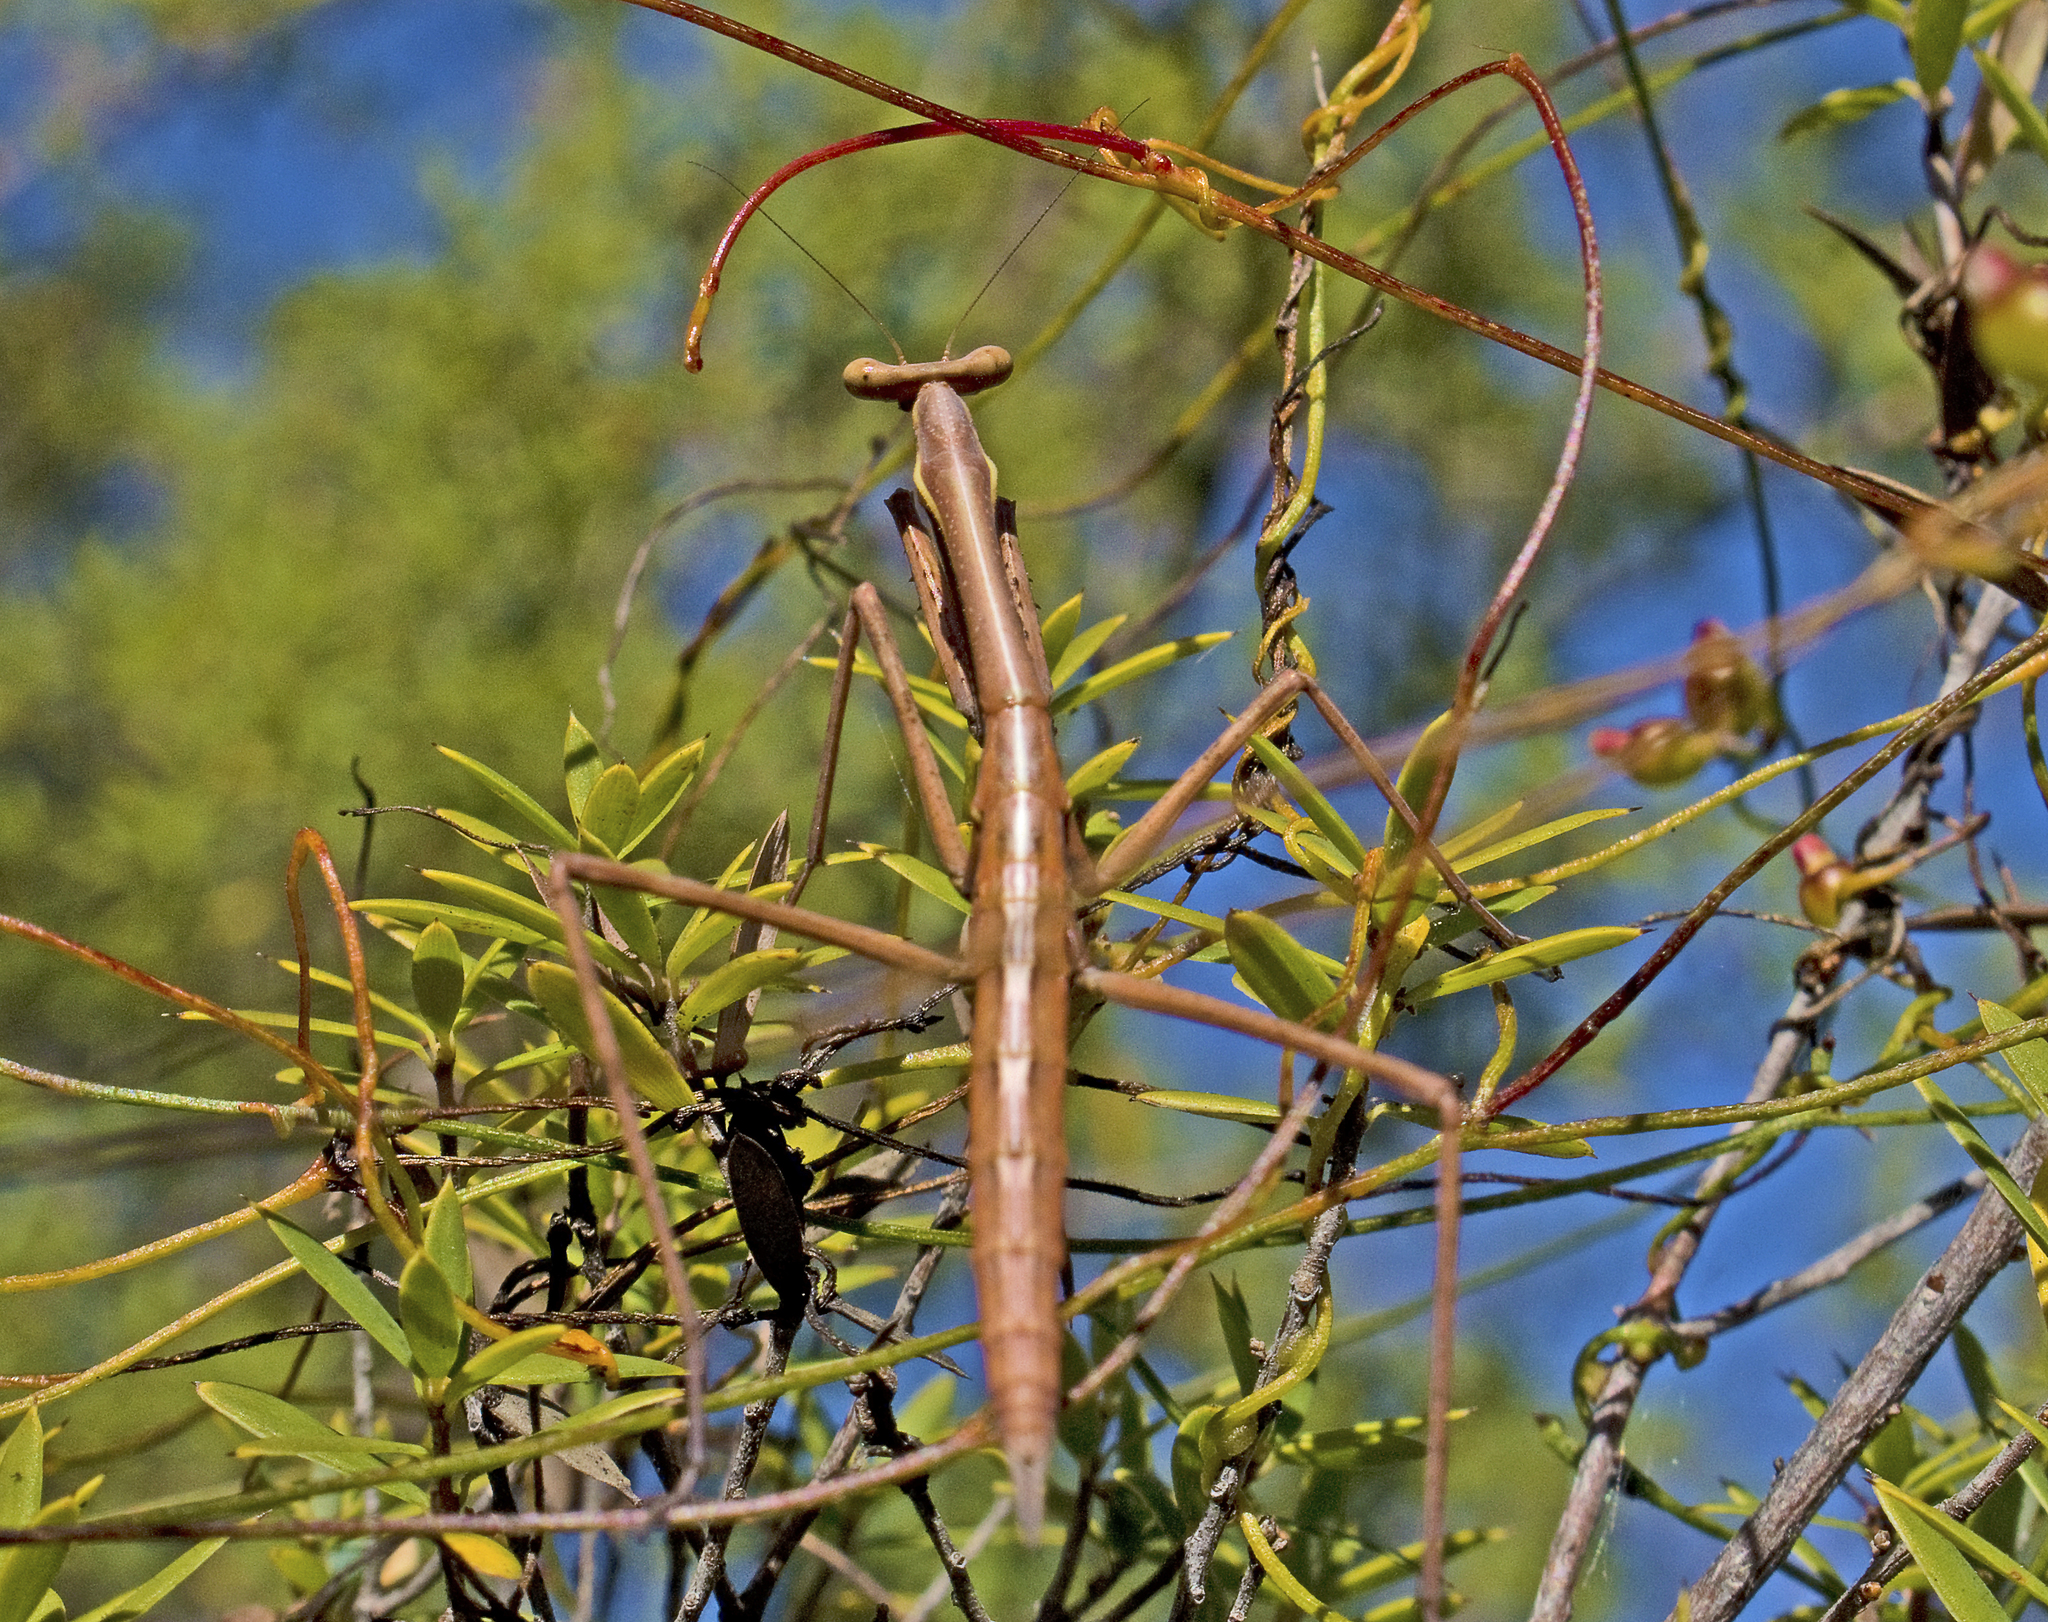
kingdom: Animalia
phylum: Arthropoda
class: Insecta
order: Mantodea
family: Mantidae
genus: Archimantis
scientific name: Archimantis latistyla
